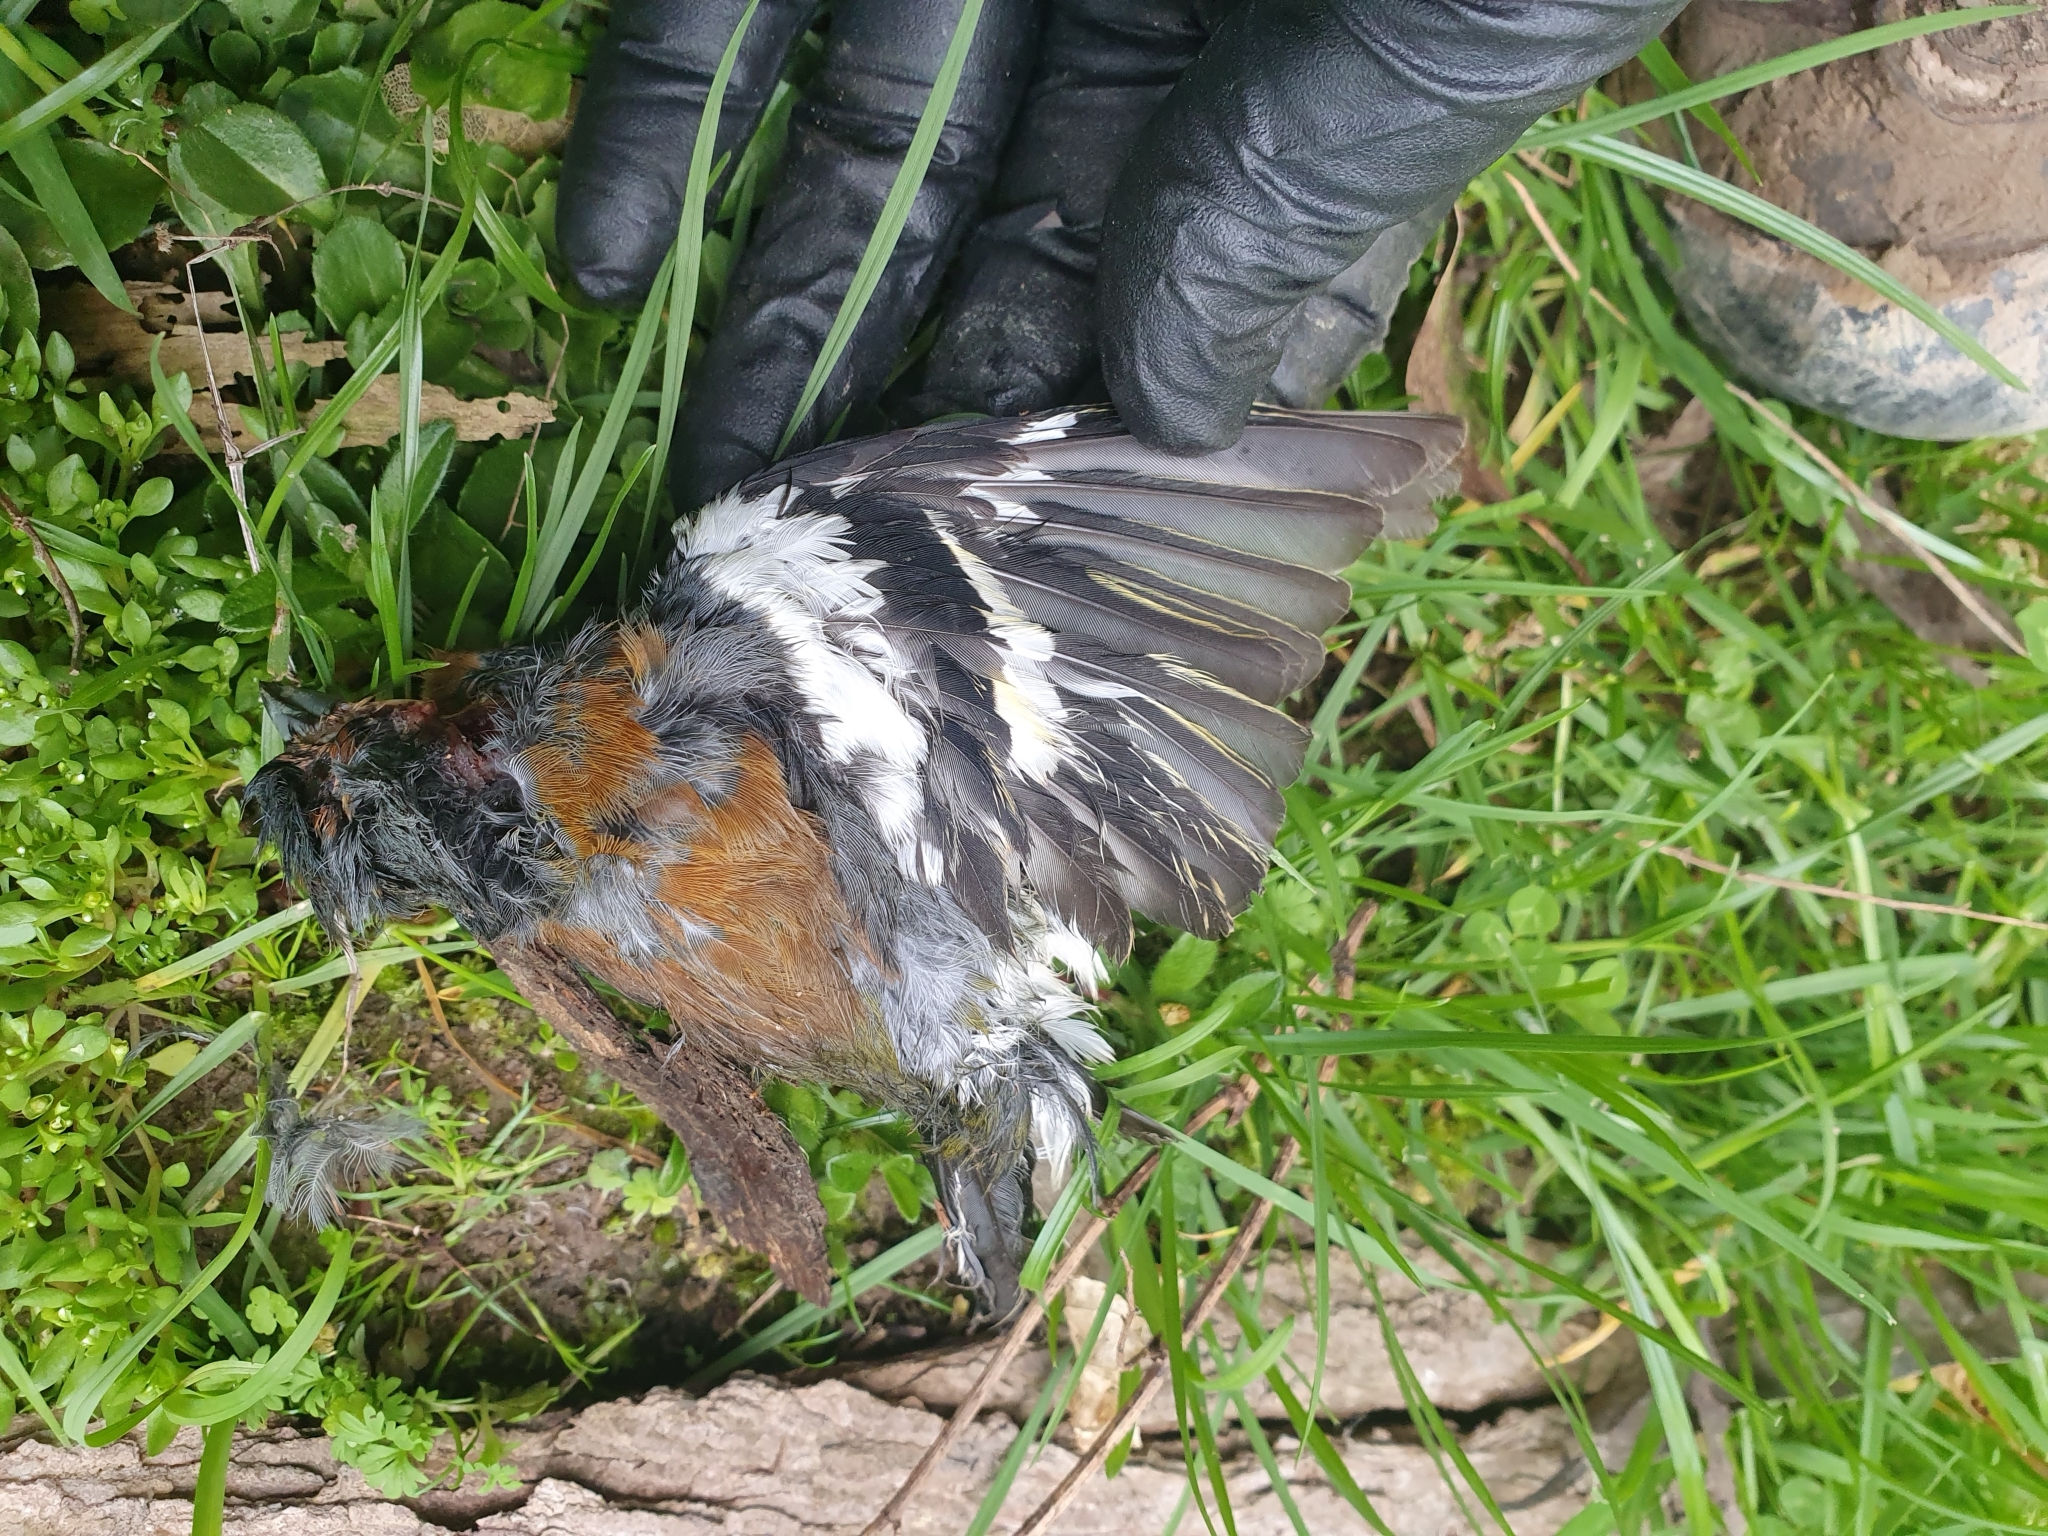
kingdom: Animalia
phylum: Chordata
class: Aves
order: Passeriformes
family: Fringillidae
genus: Fringilla
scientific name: Fringilla coelebs
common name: Common chaffinch
